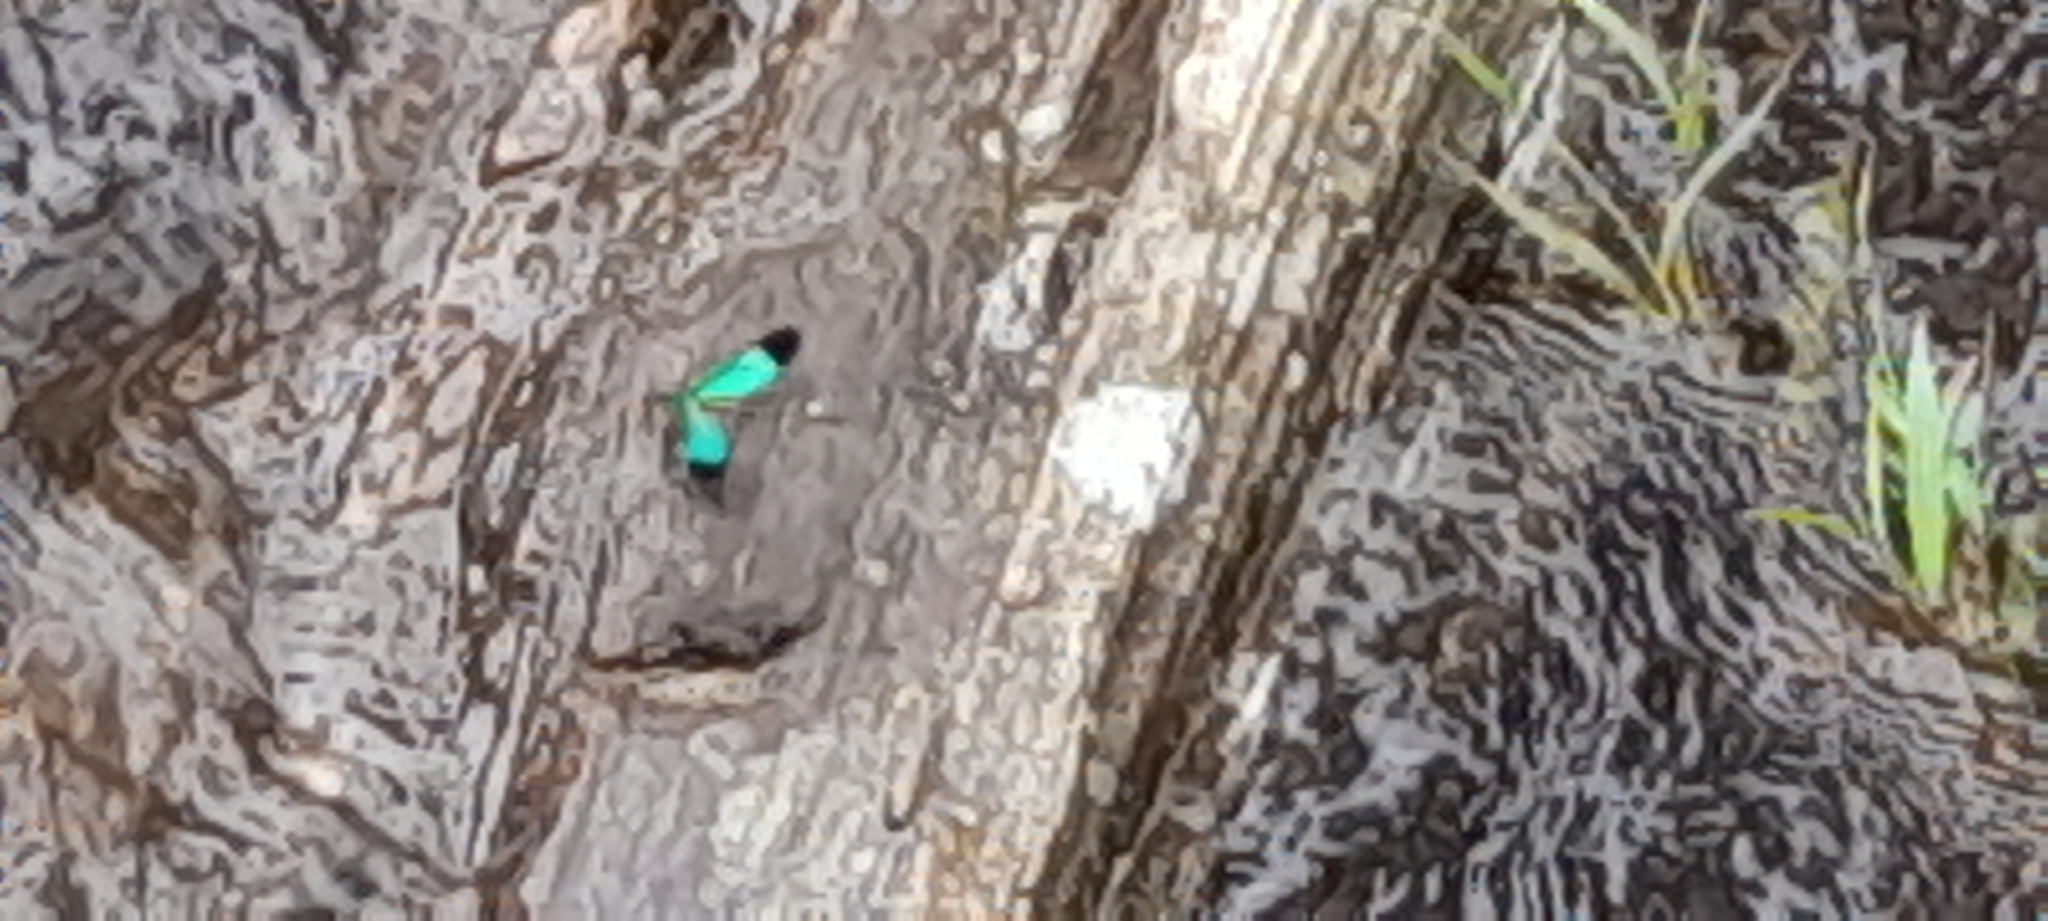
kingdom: Animalia
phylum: Arthropoda
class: Insecta
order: Odonata
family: Calopterygidae
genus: Neurobasis
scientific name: Neurobasis chinensis
